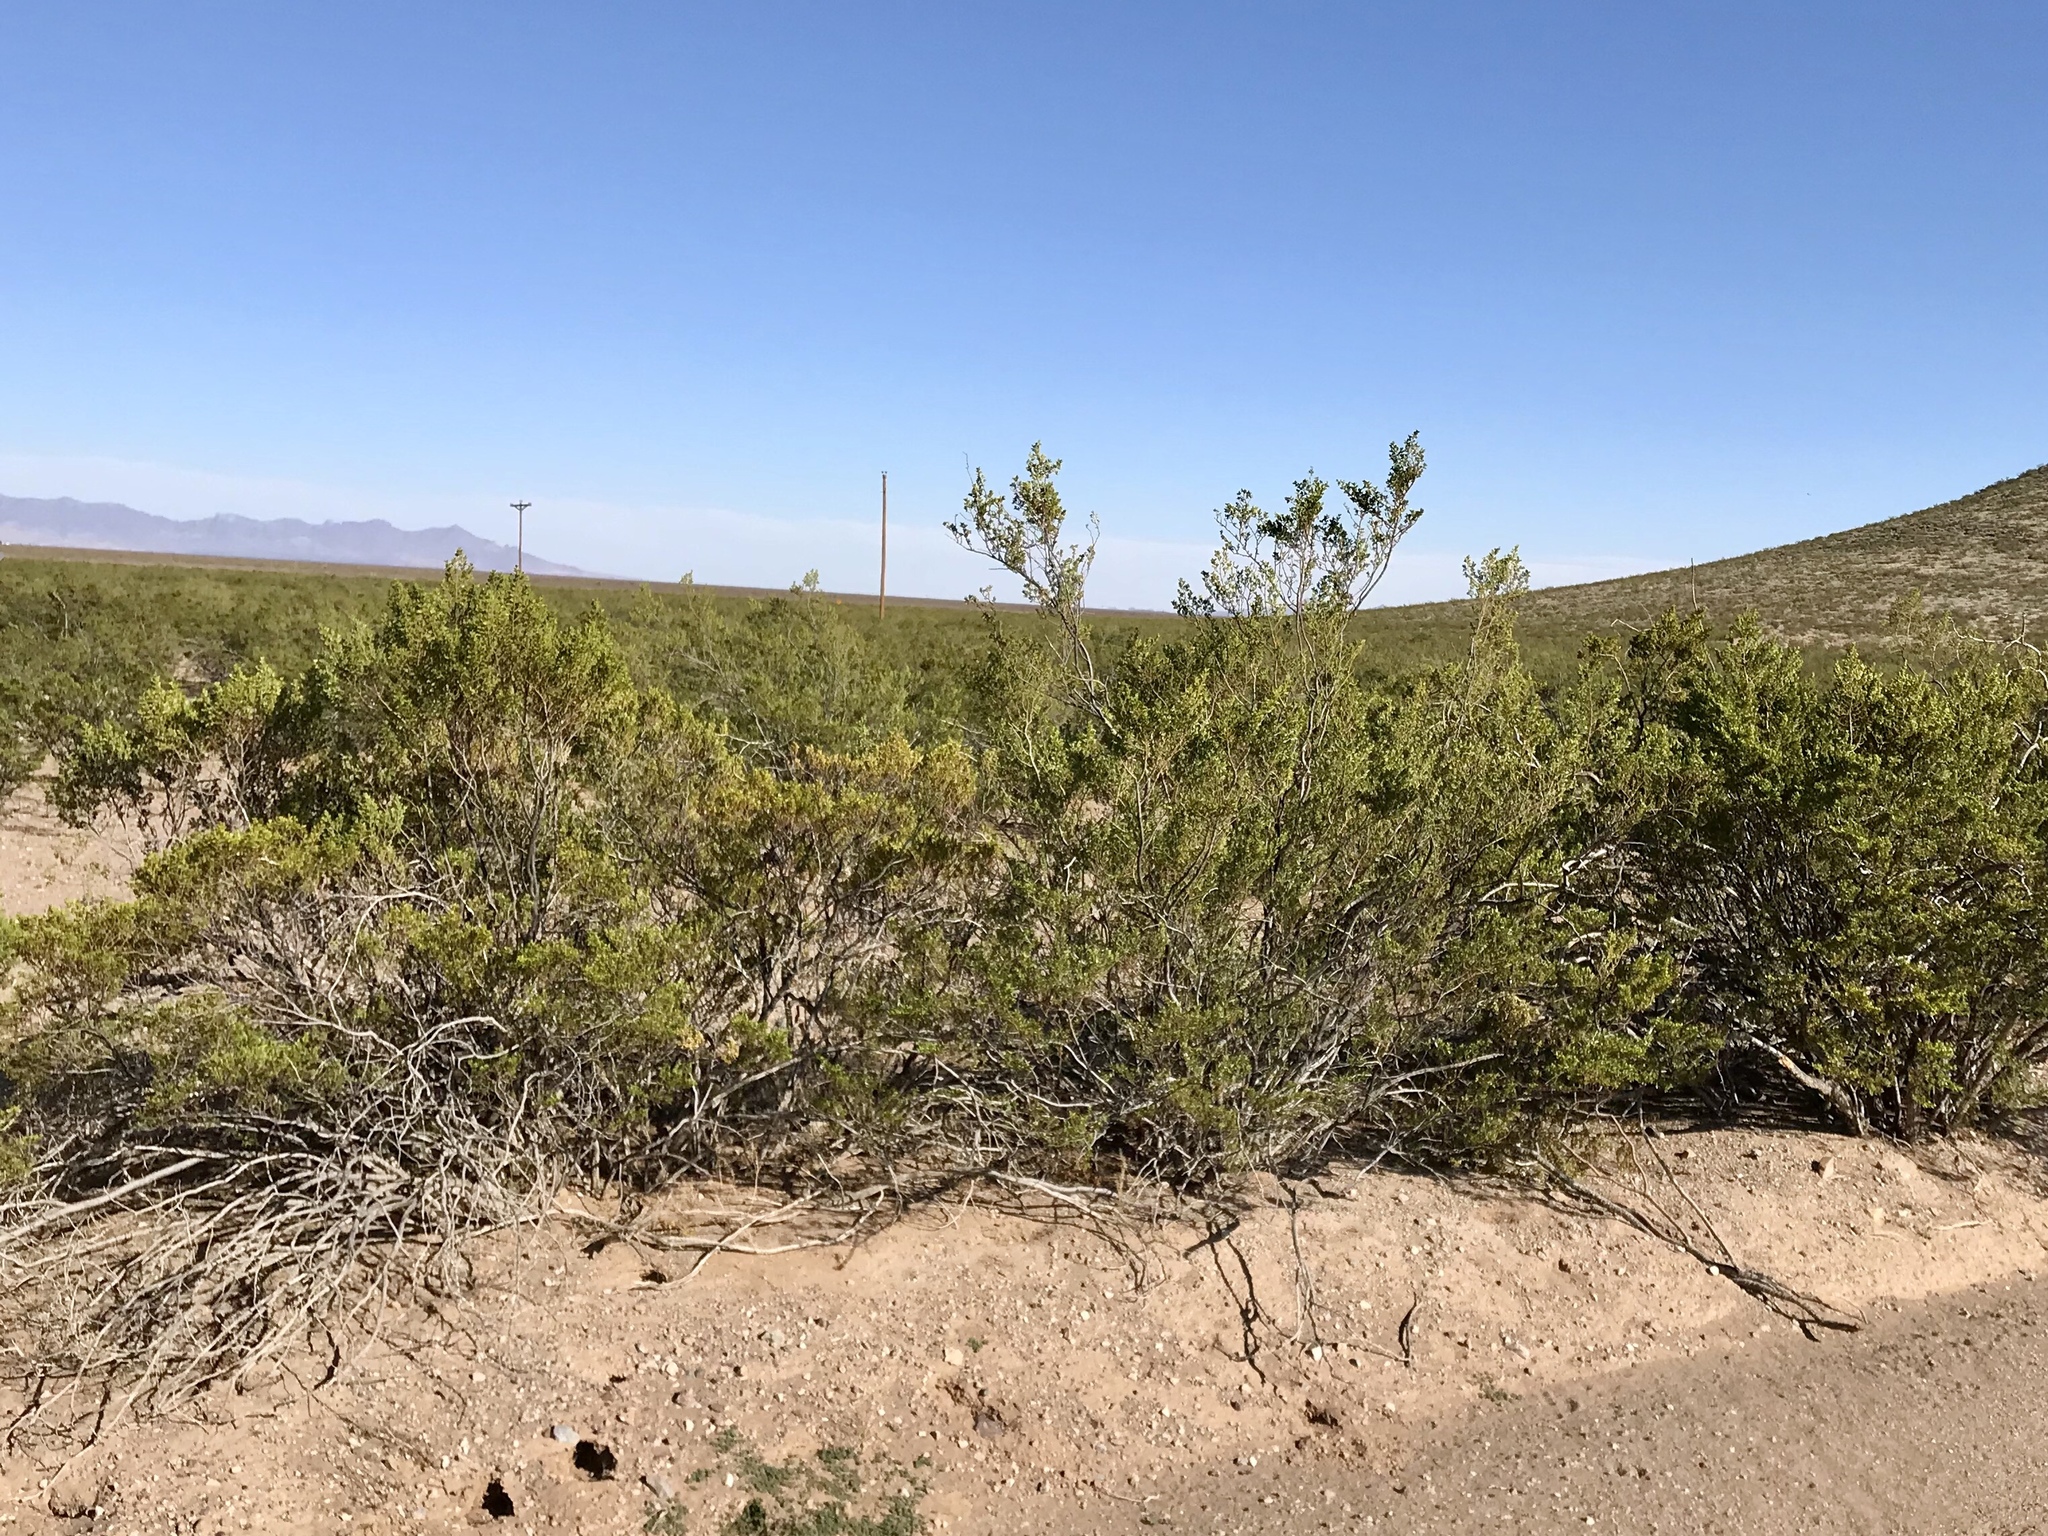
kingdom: Plantae
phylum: Tracheophyta
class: Magnoliopsida
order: Zygophyllales
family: Zygophyllaceae
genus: Larrea
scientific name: Larrea tridentata
